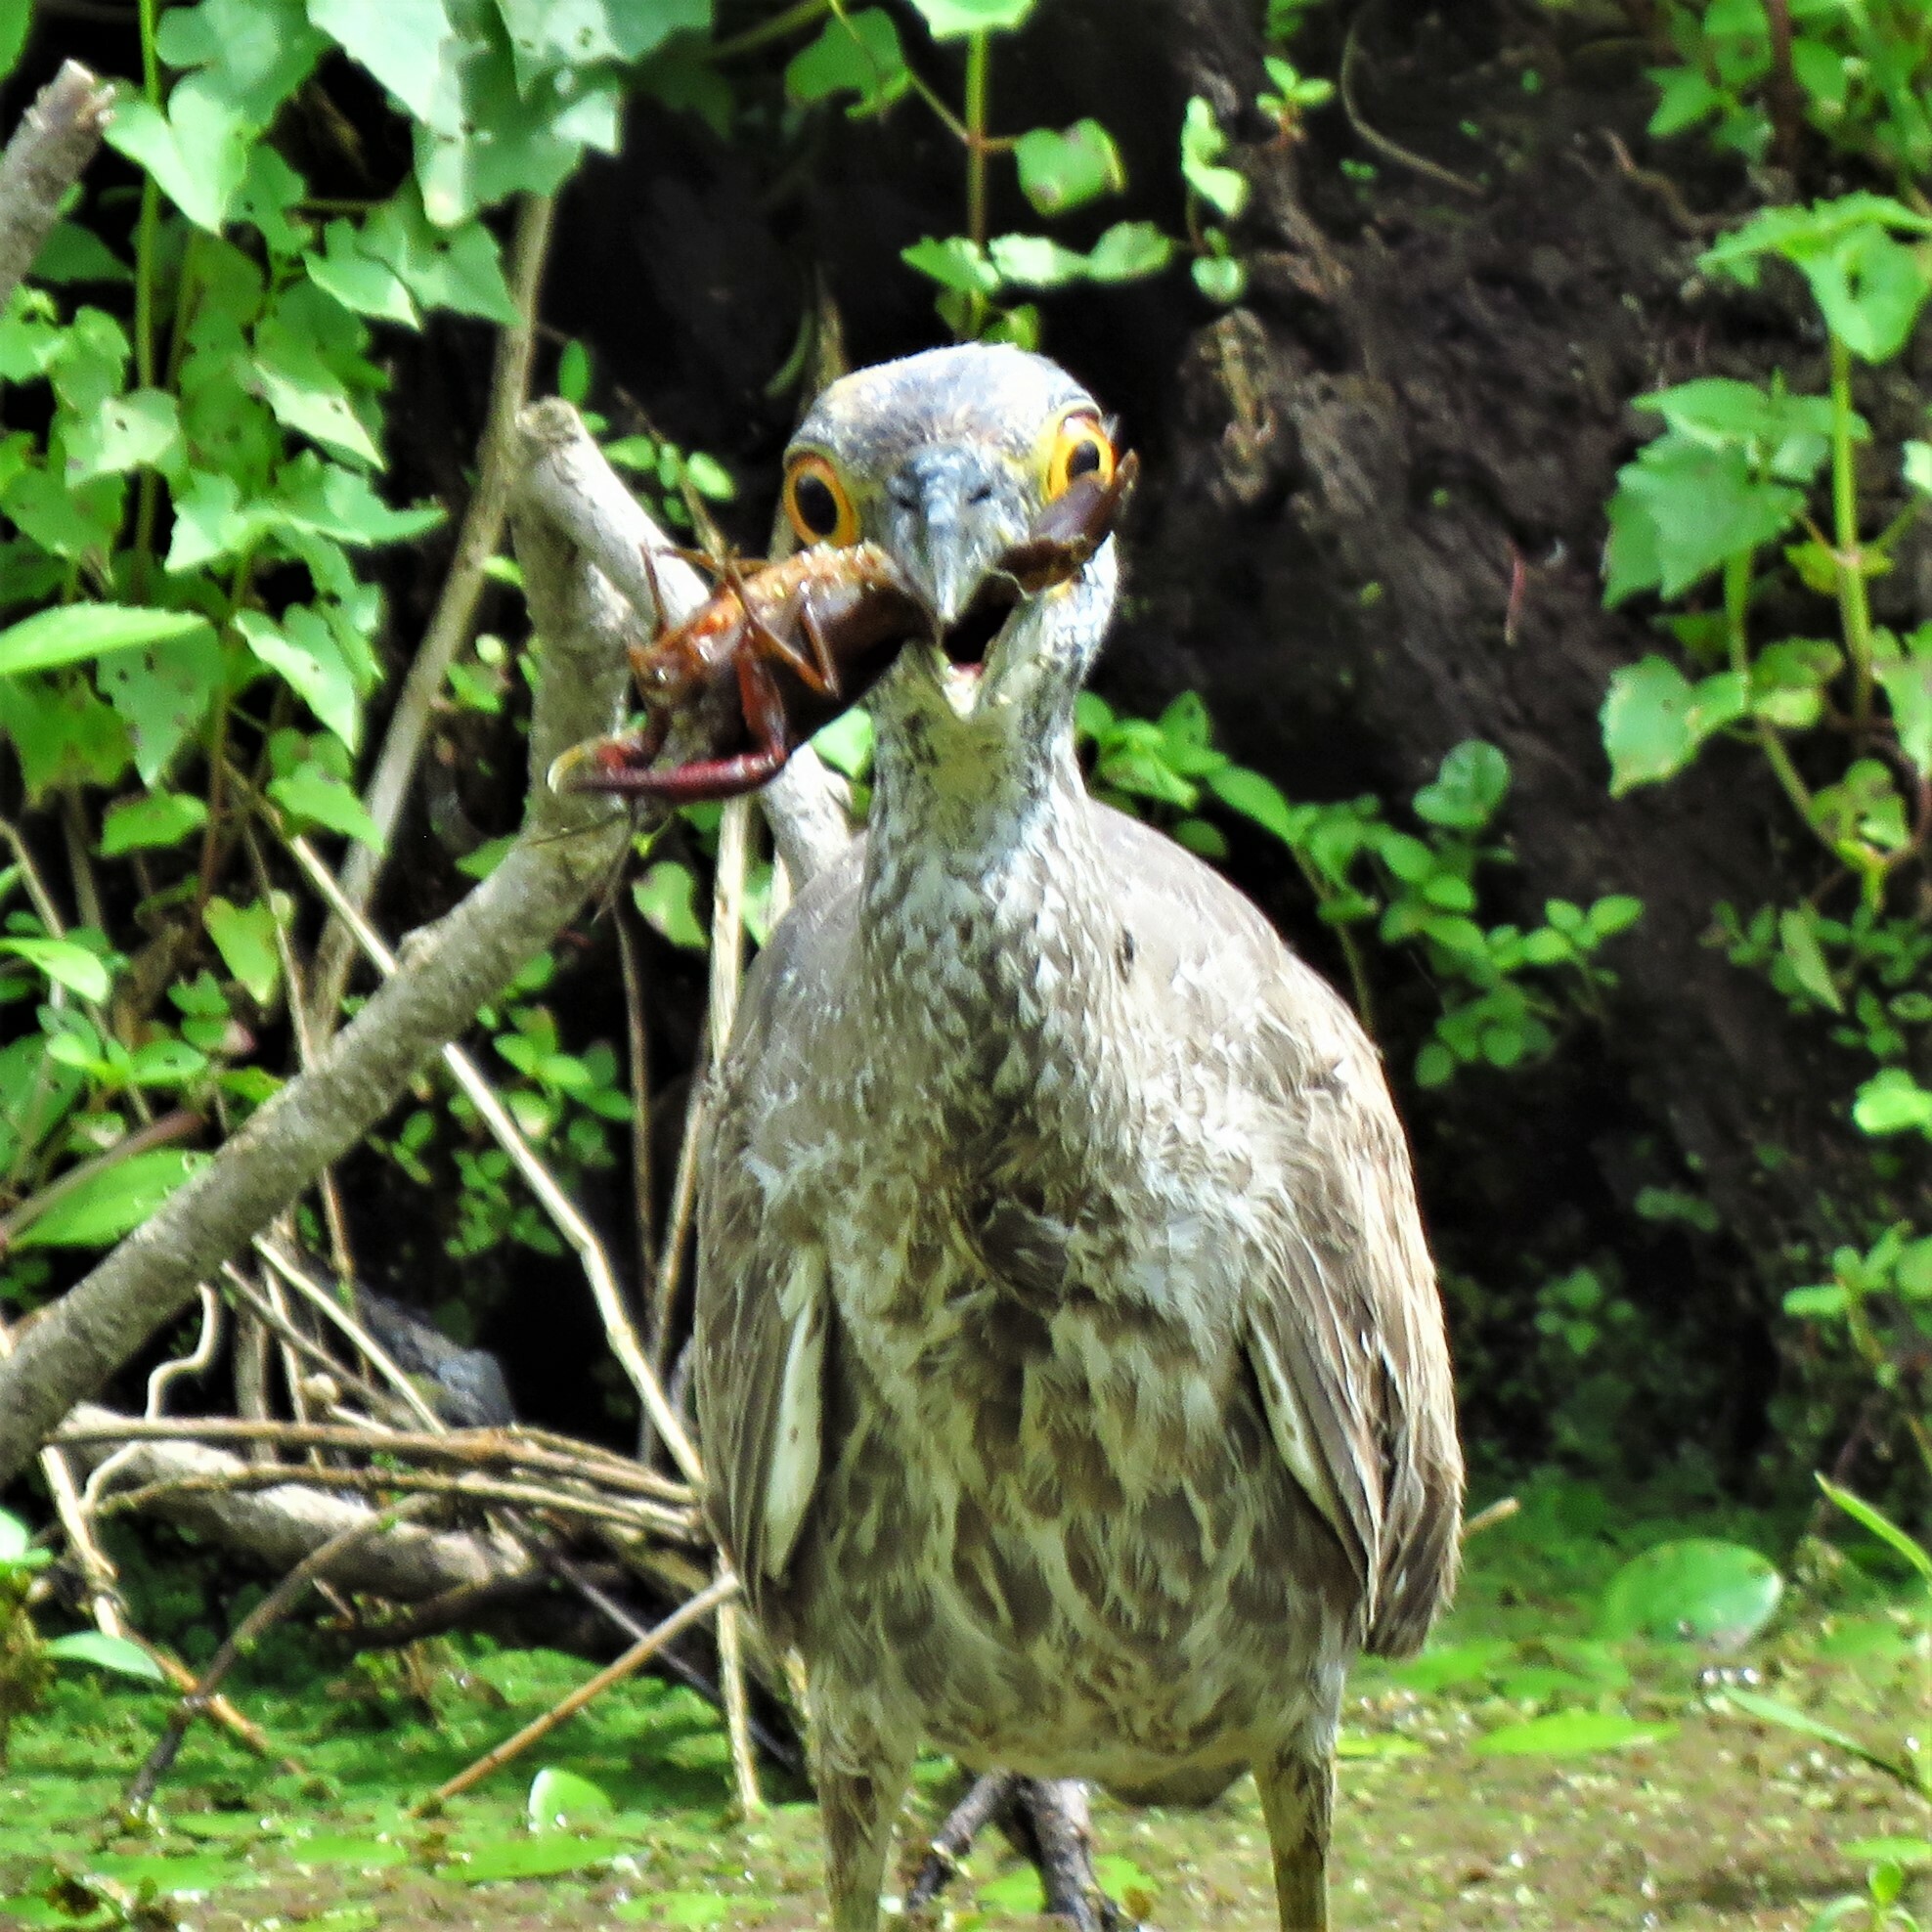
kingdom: Animalia
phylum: Chordata
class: Aves
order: Pelecaniformes
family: Ardeidae
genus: Nyctanassa
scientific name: Nyctanassa violacea
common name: Yellow-crowned night heron
